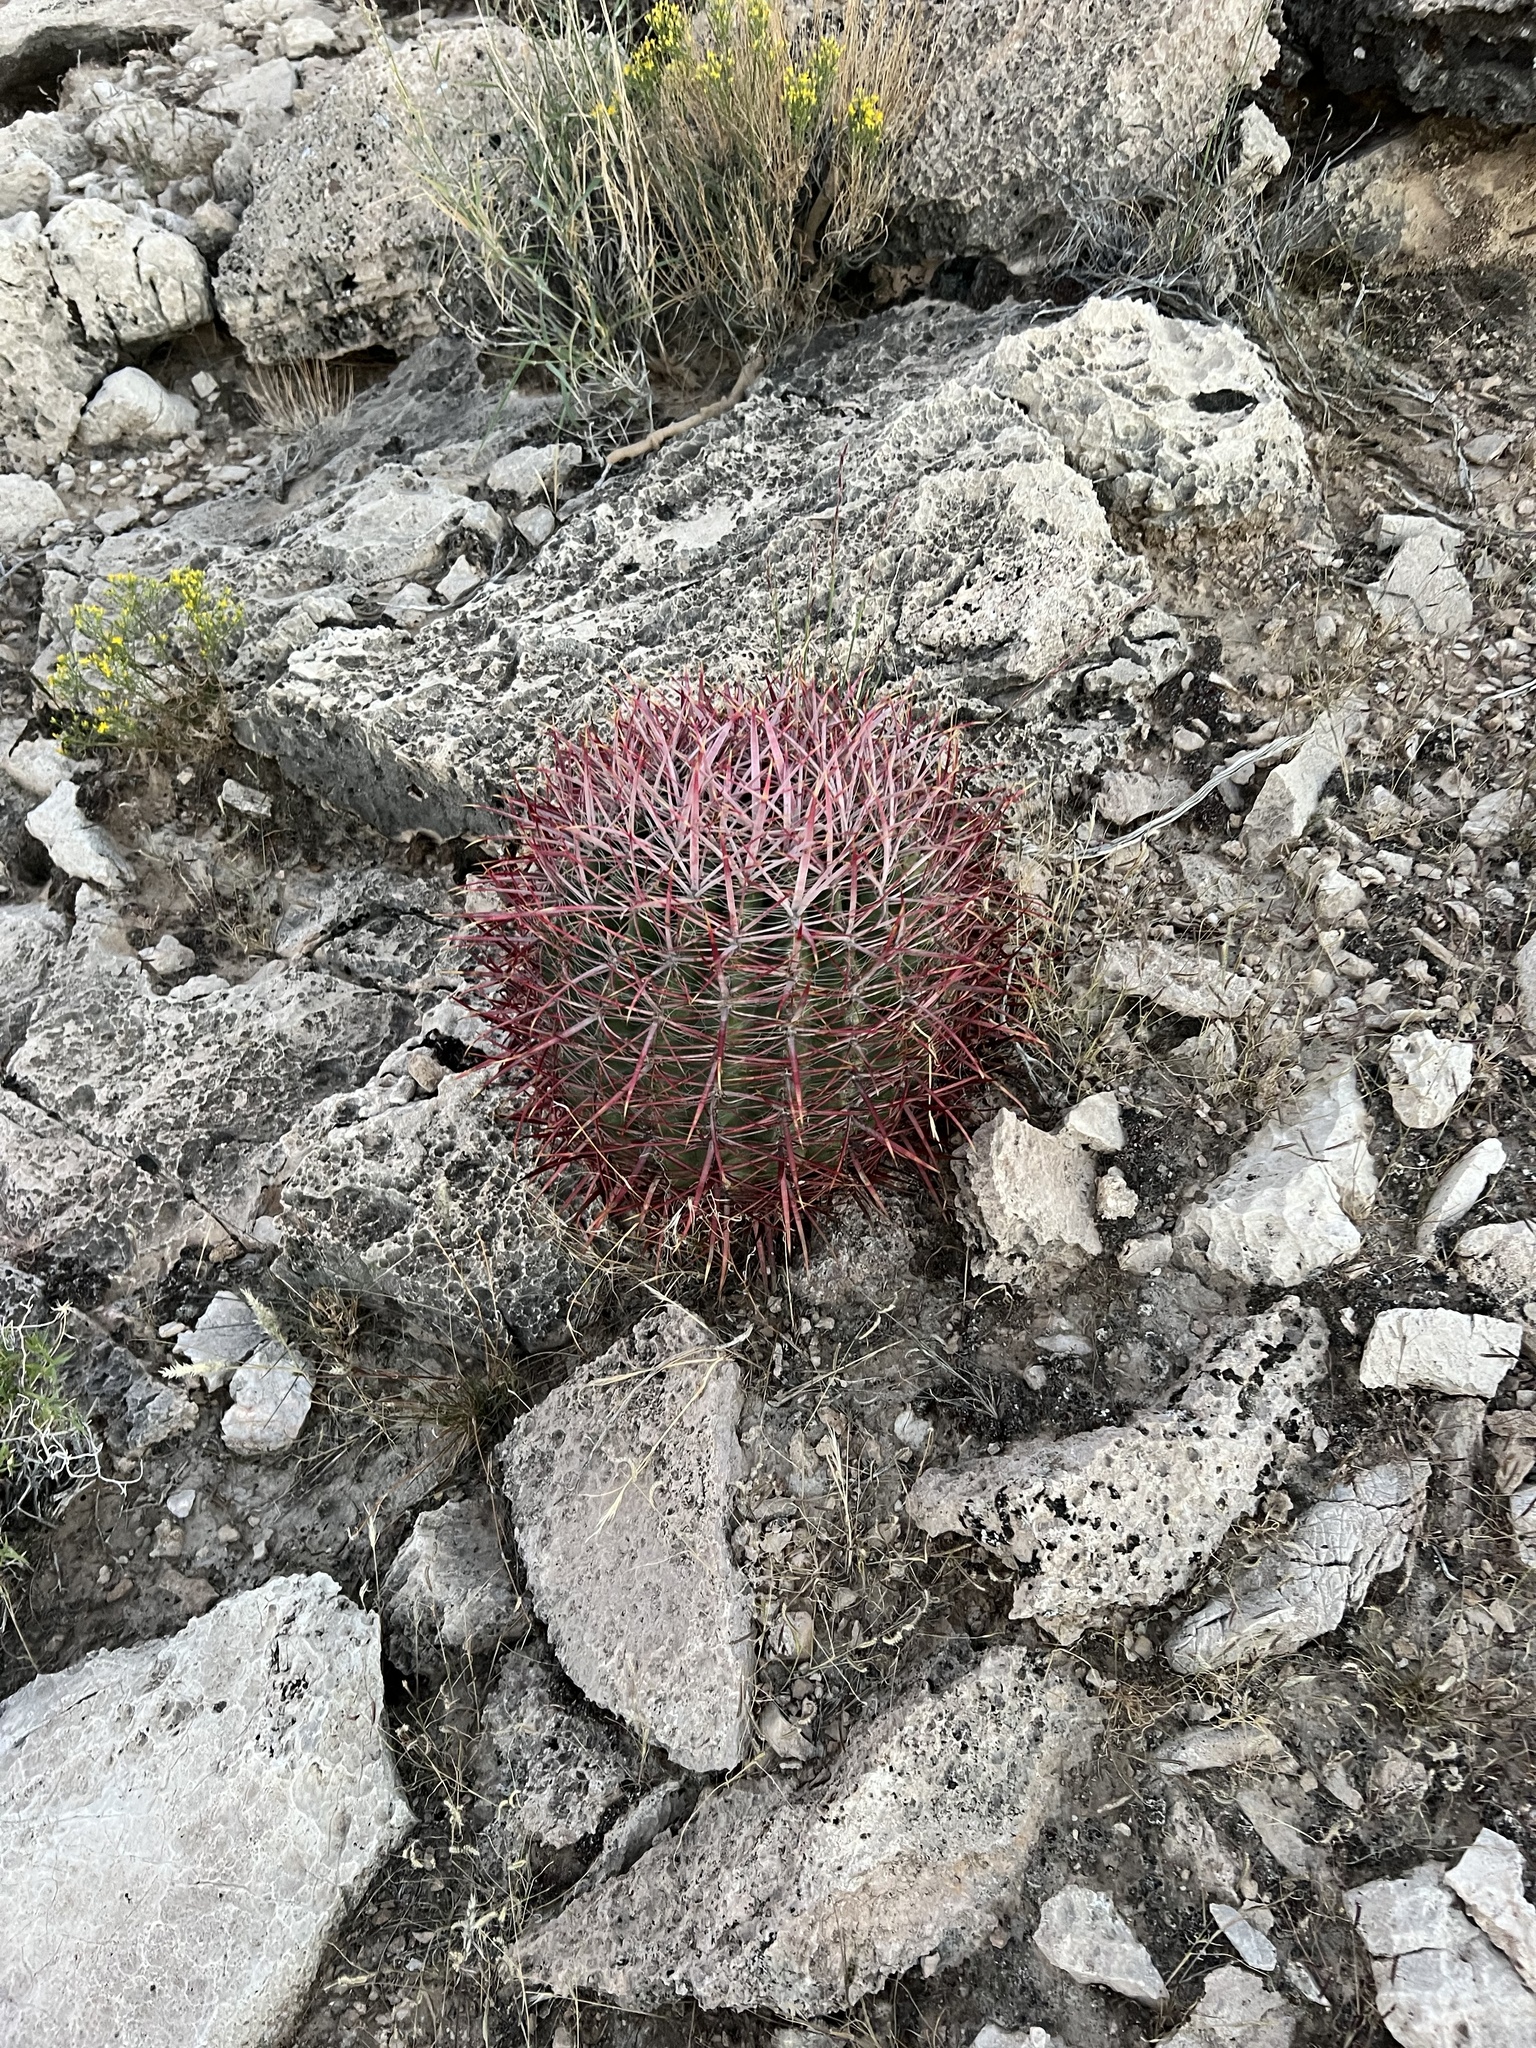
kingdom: Plantae
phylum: Tracheophyta
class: Magnoliopsida
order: Caryophyllales
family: Cactaceae
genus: Ferocactus
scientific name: Ferocactus cylindraceus
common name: California barrel cactus
